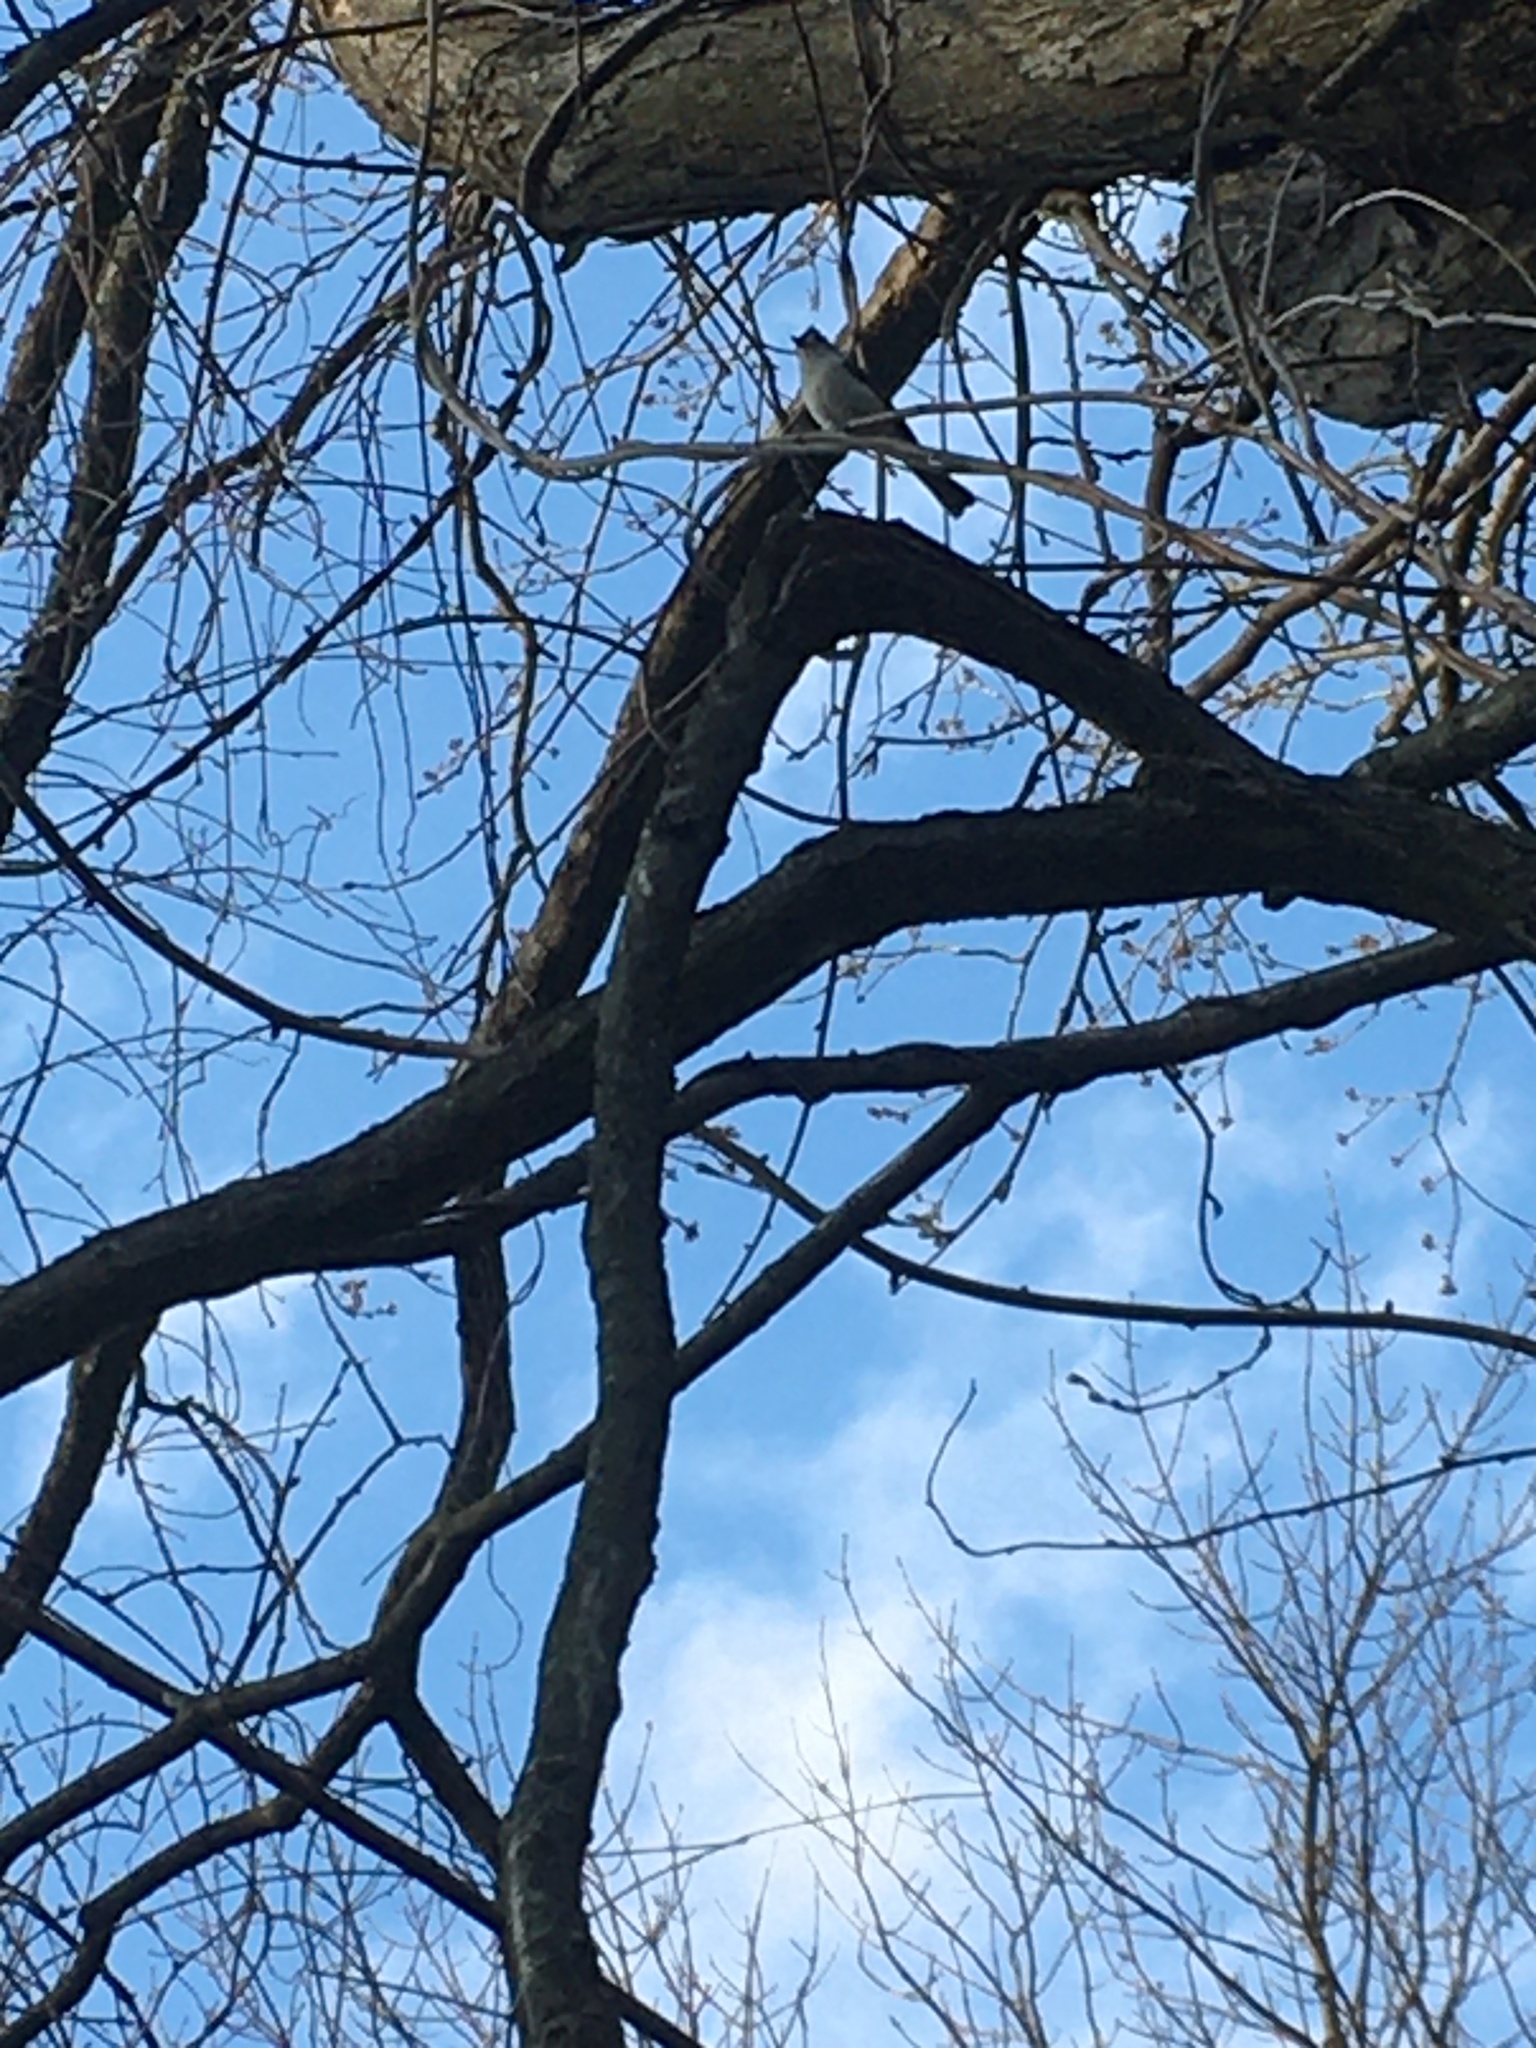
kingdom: Animalia
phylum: Chordata
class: Aves
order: Passeriformes
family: Paridae
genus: Baeolophus
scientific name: Baeolophus bicolor
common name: Tufted titmouse
